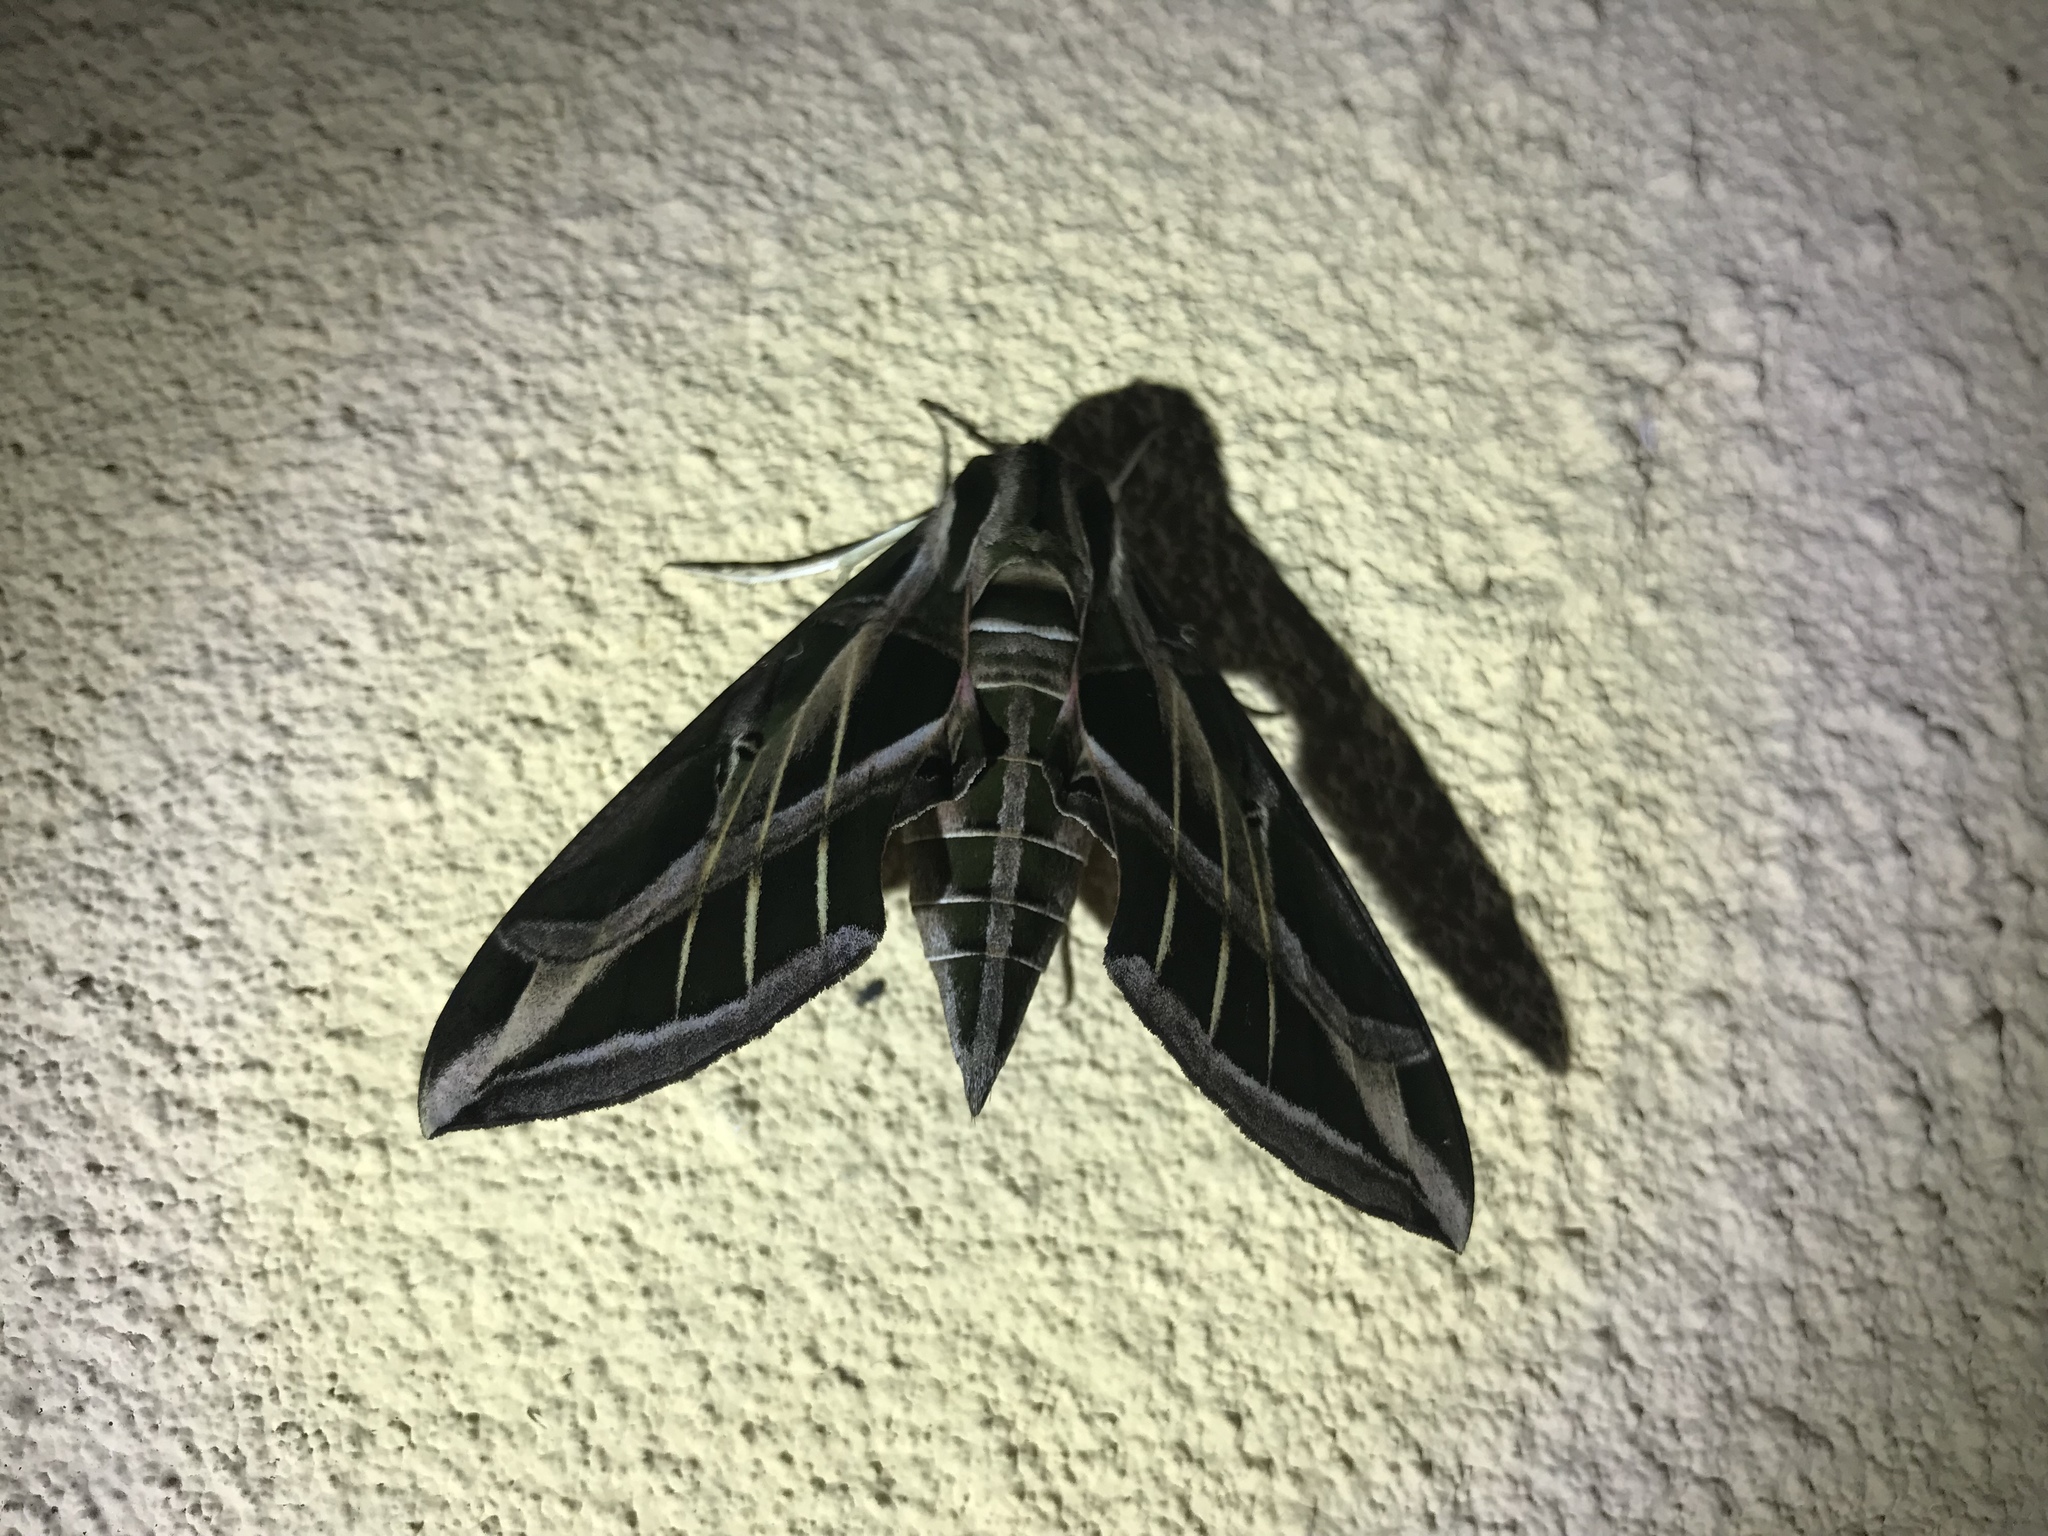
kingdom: Animalia
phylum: Arthropoda
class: Insecta
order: Lepidoptera
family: Sphingidae
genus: Eumorpha
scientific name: Eumorpha vitis
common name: Vine sphinx
